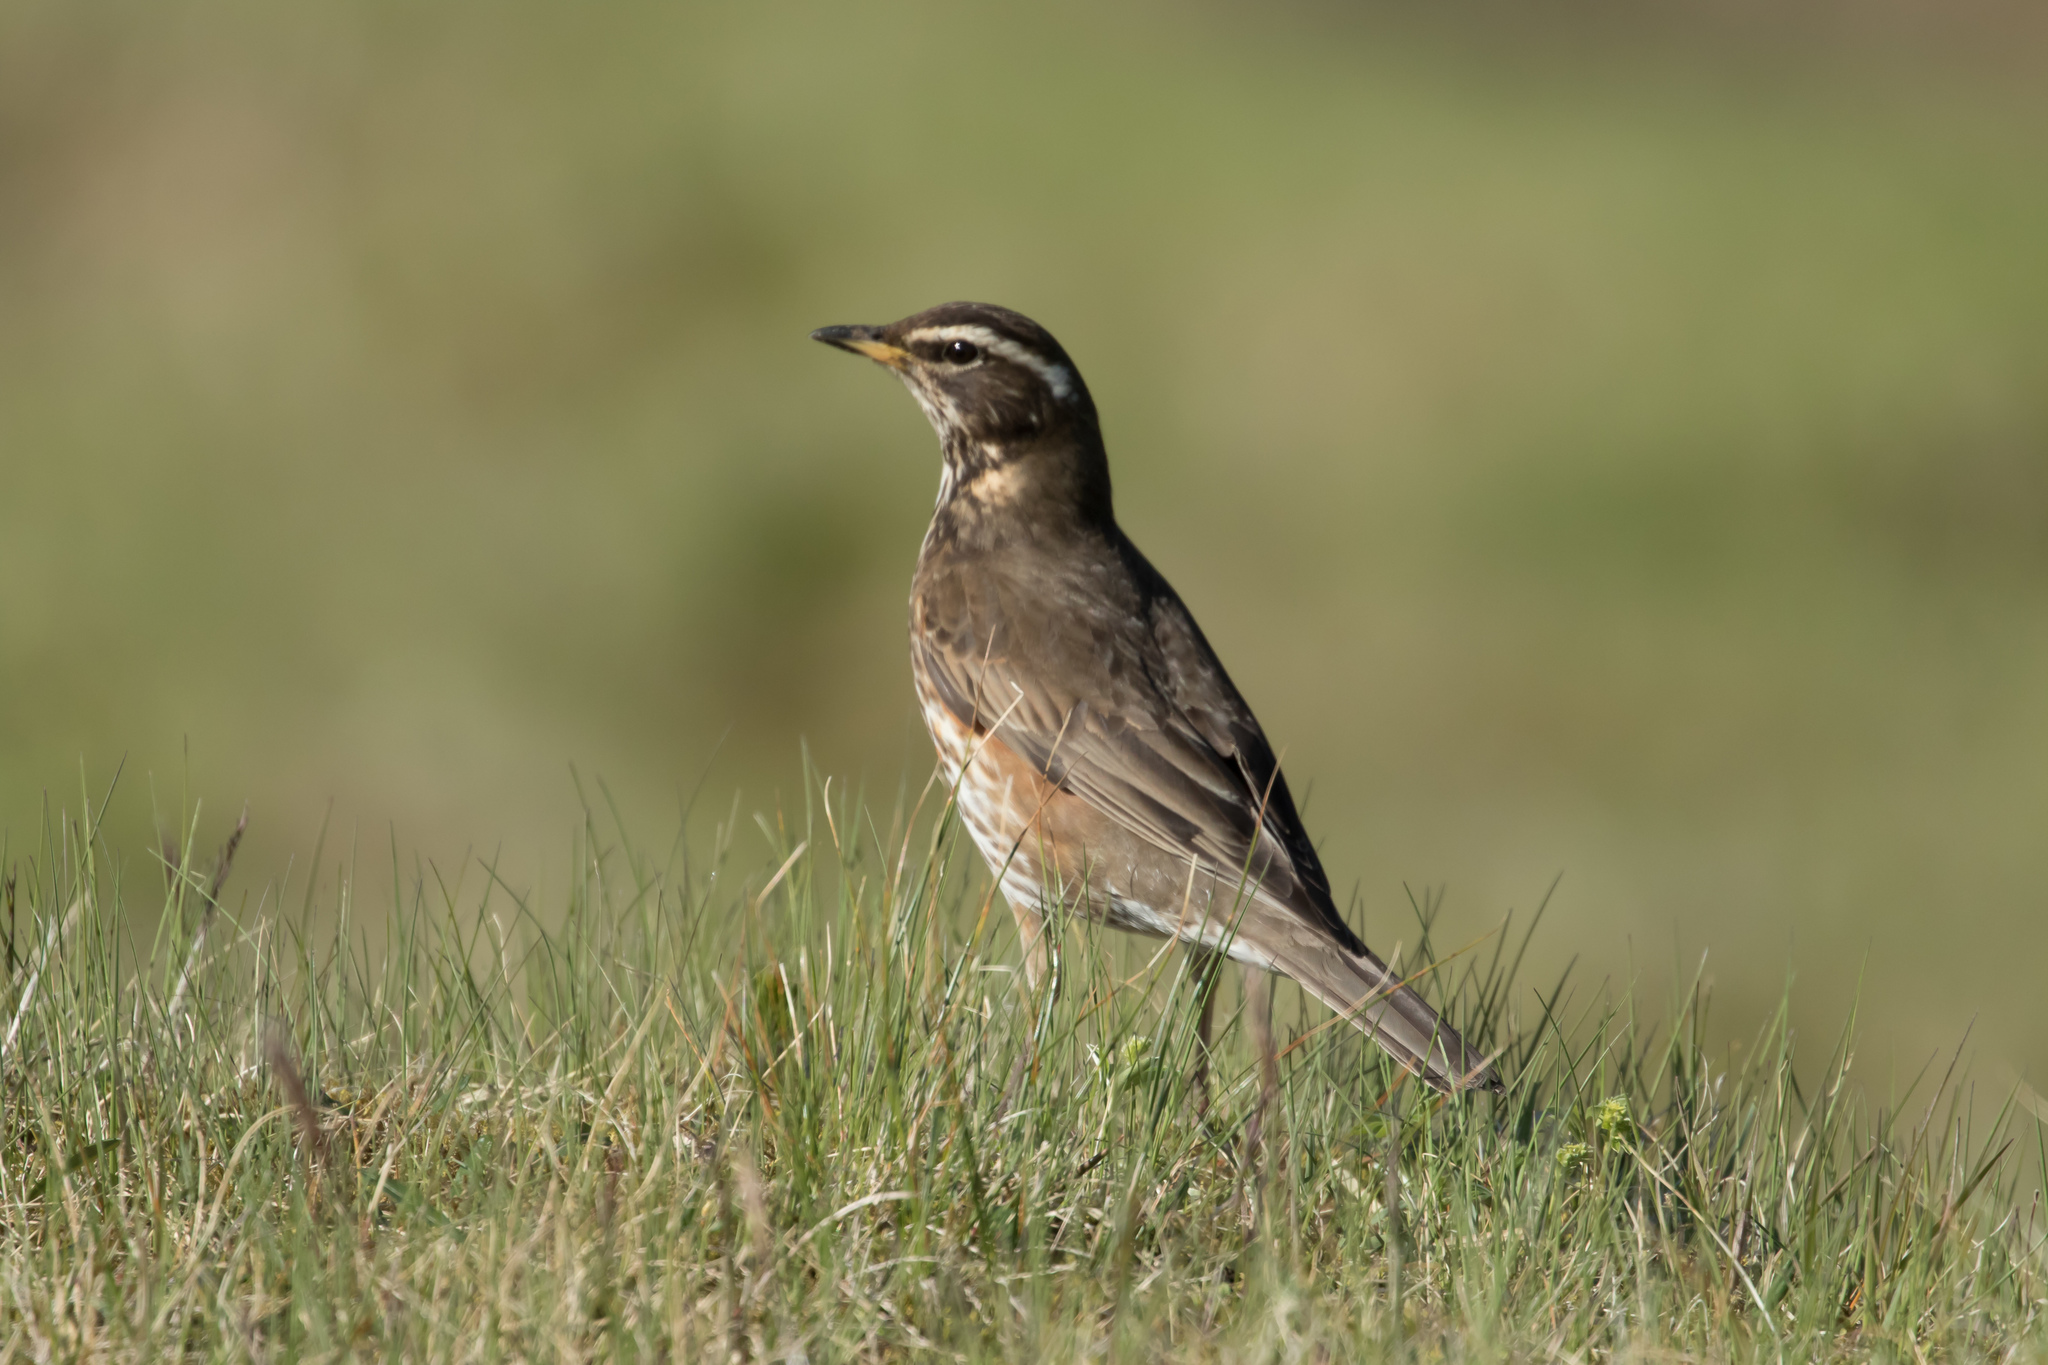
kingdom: Animalia
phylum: Chordata
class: Aves
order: Passeriformes
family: Turdidae
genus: Turdus
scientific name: Turdus iliacus
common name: Redwing
